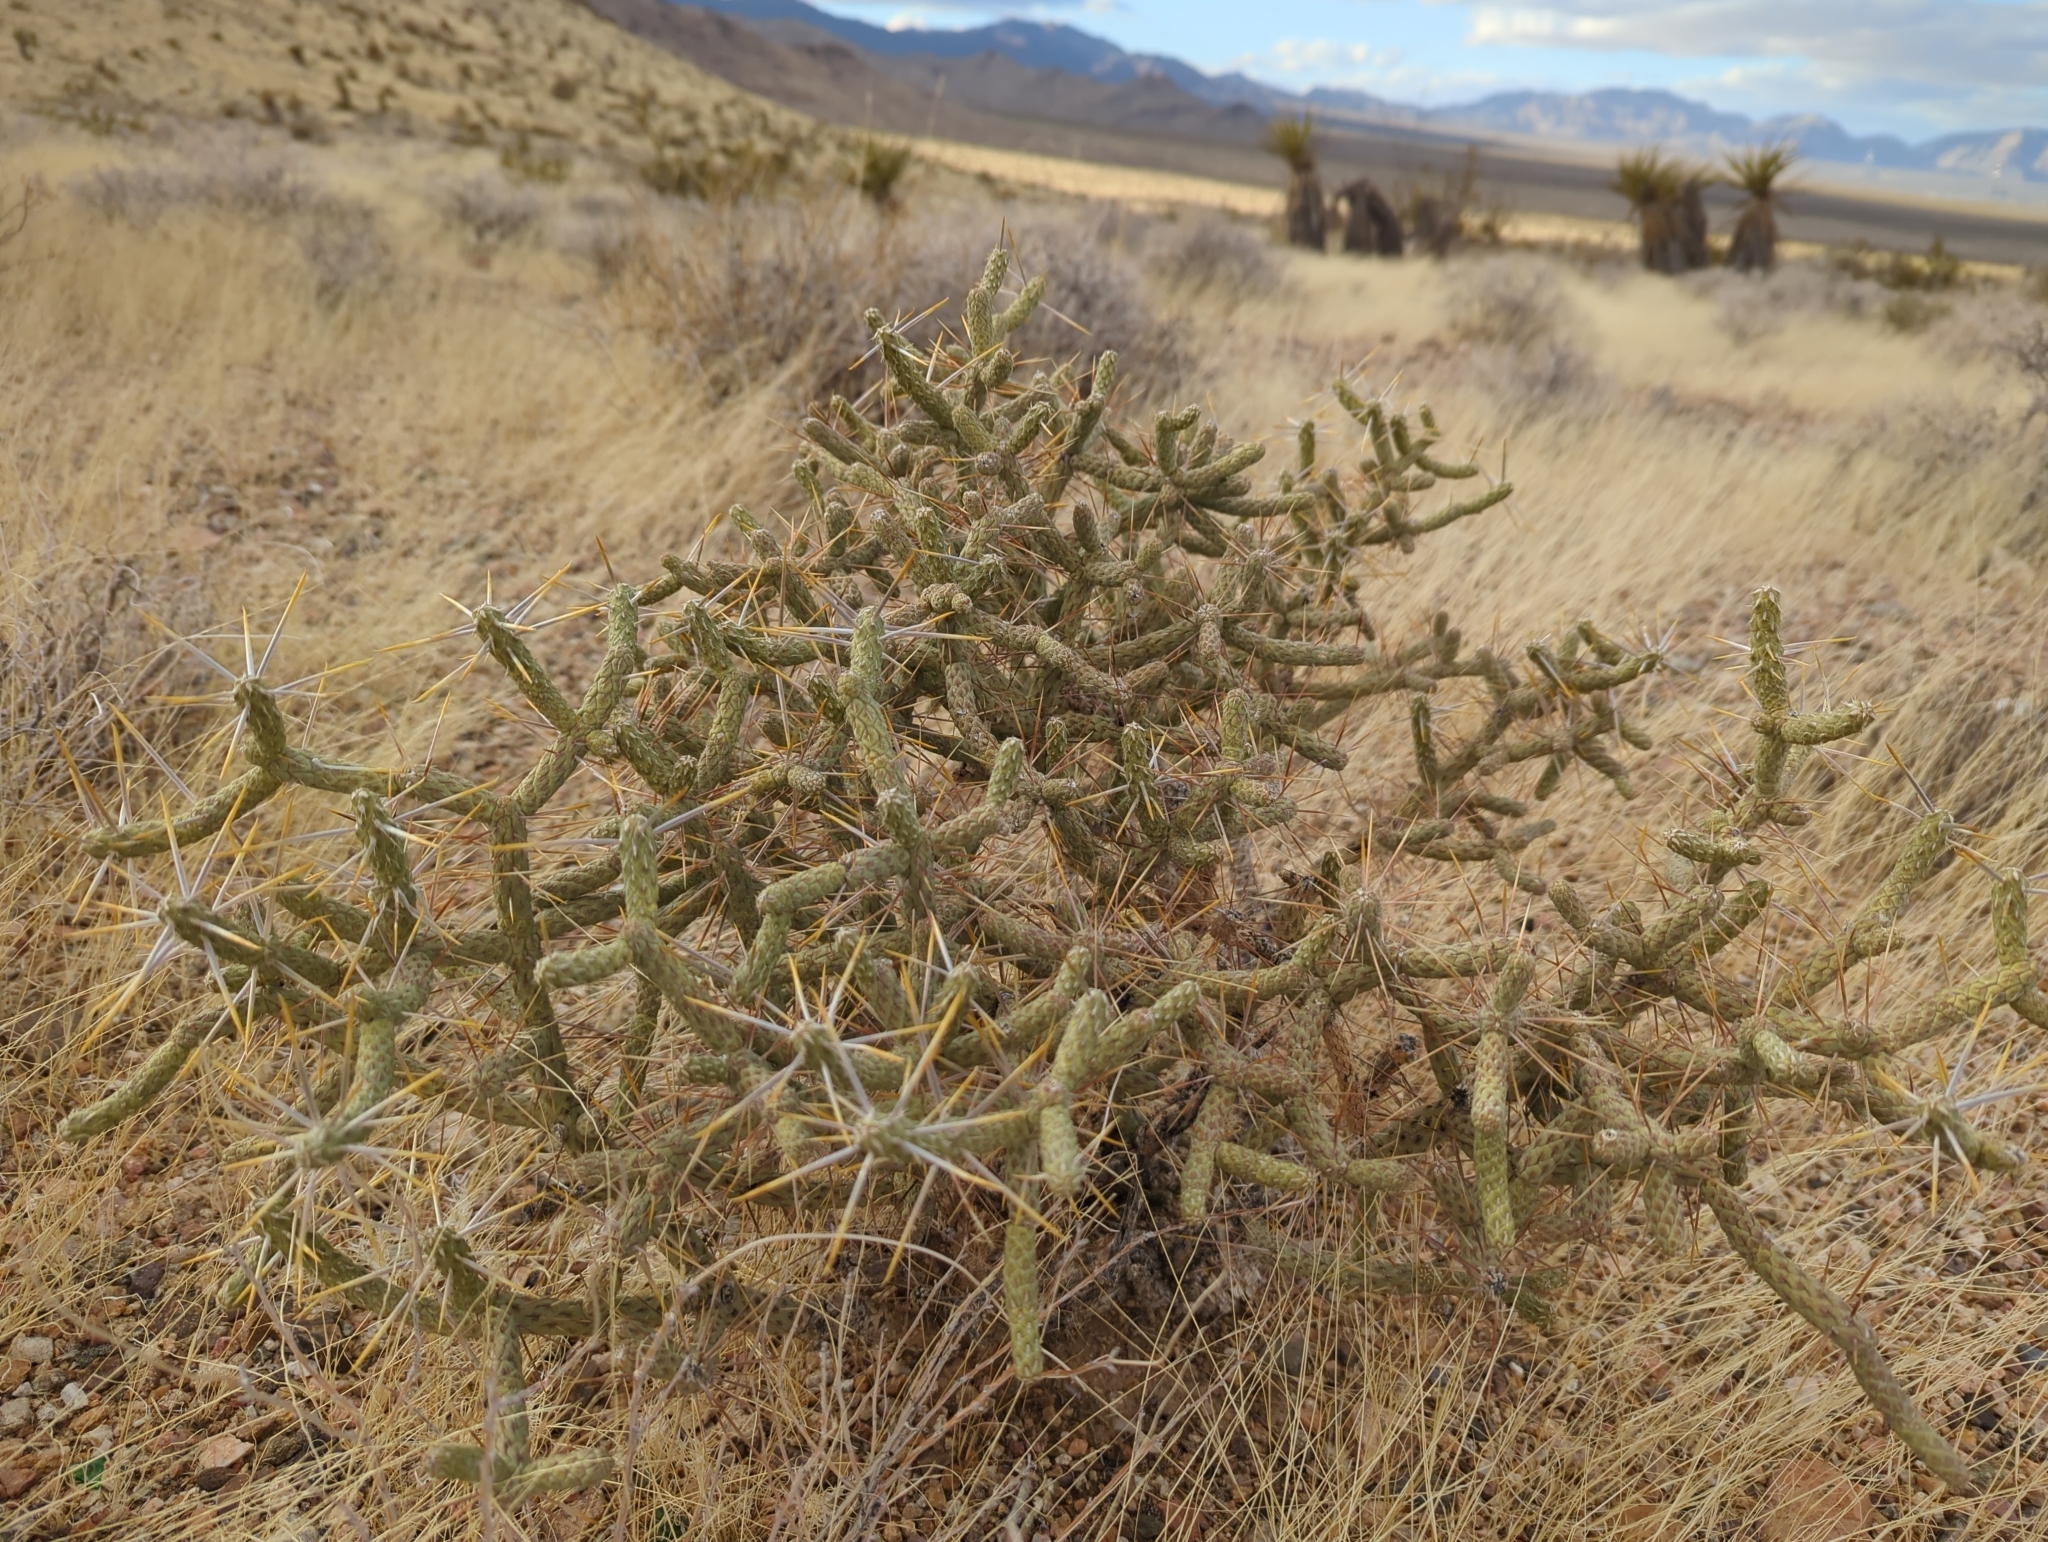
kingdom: Plantae
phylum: Tracheophyta
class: Magnoliopsida
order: Caryophyllales
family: Cactaceae
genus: Cylindropuntia
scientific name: Cylindropuntia ramosissima
